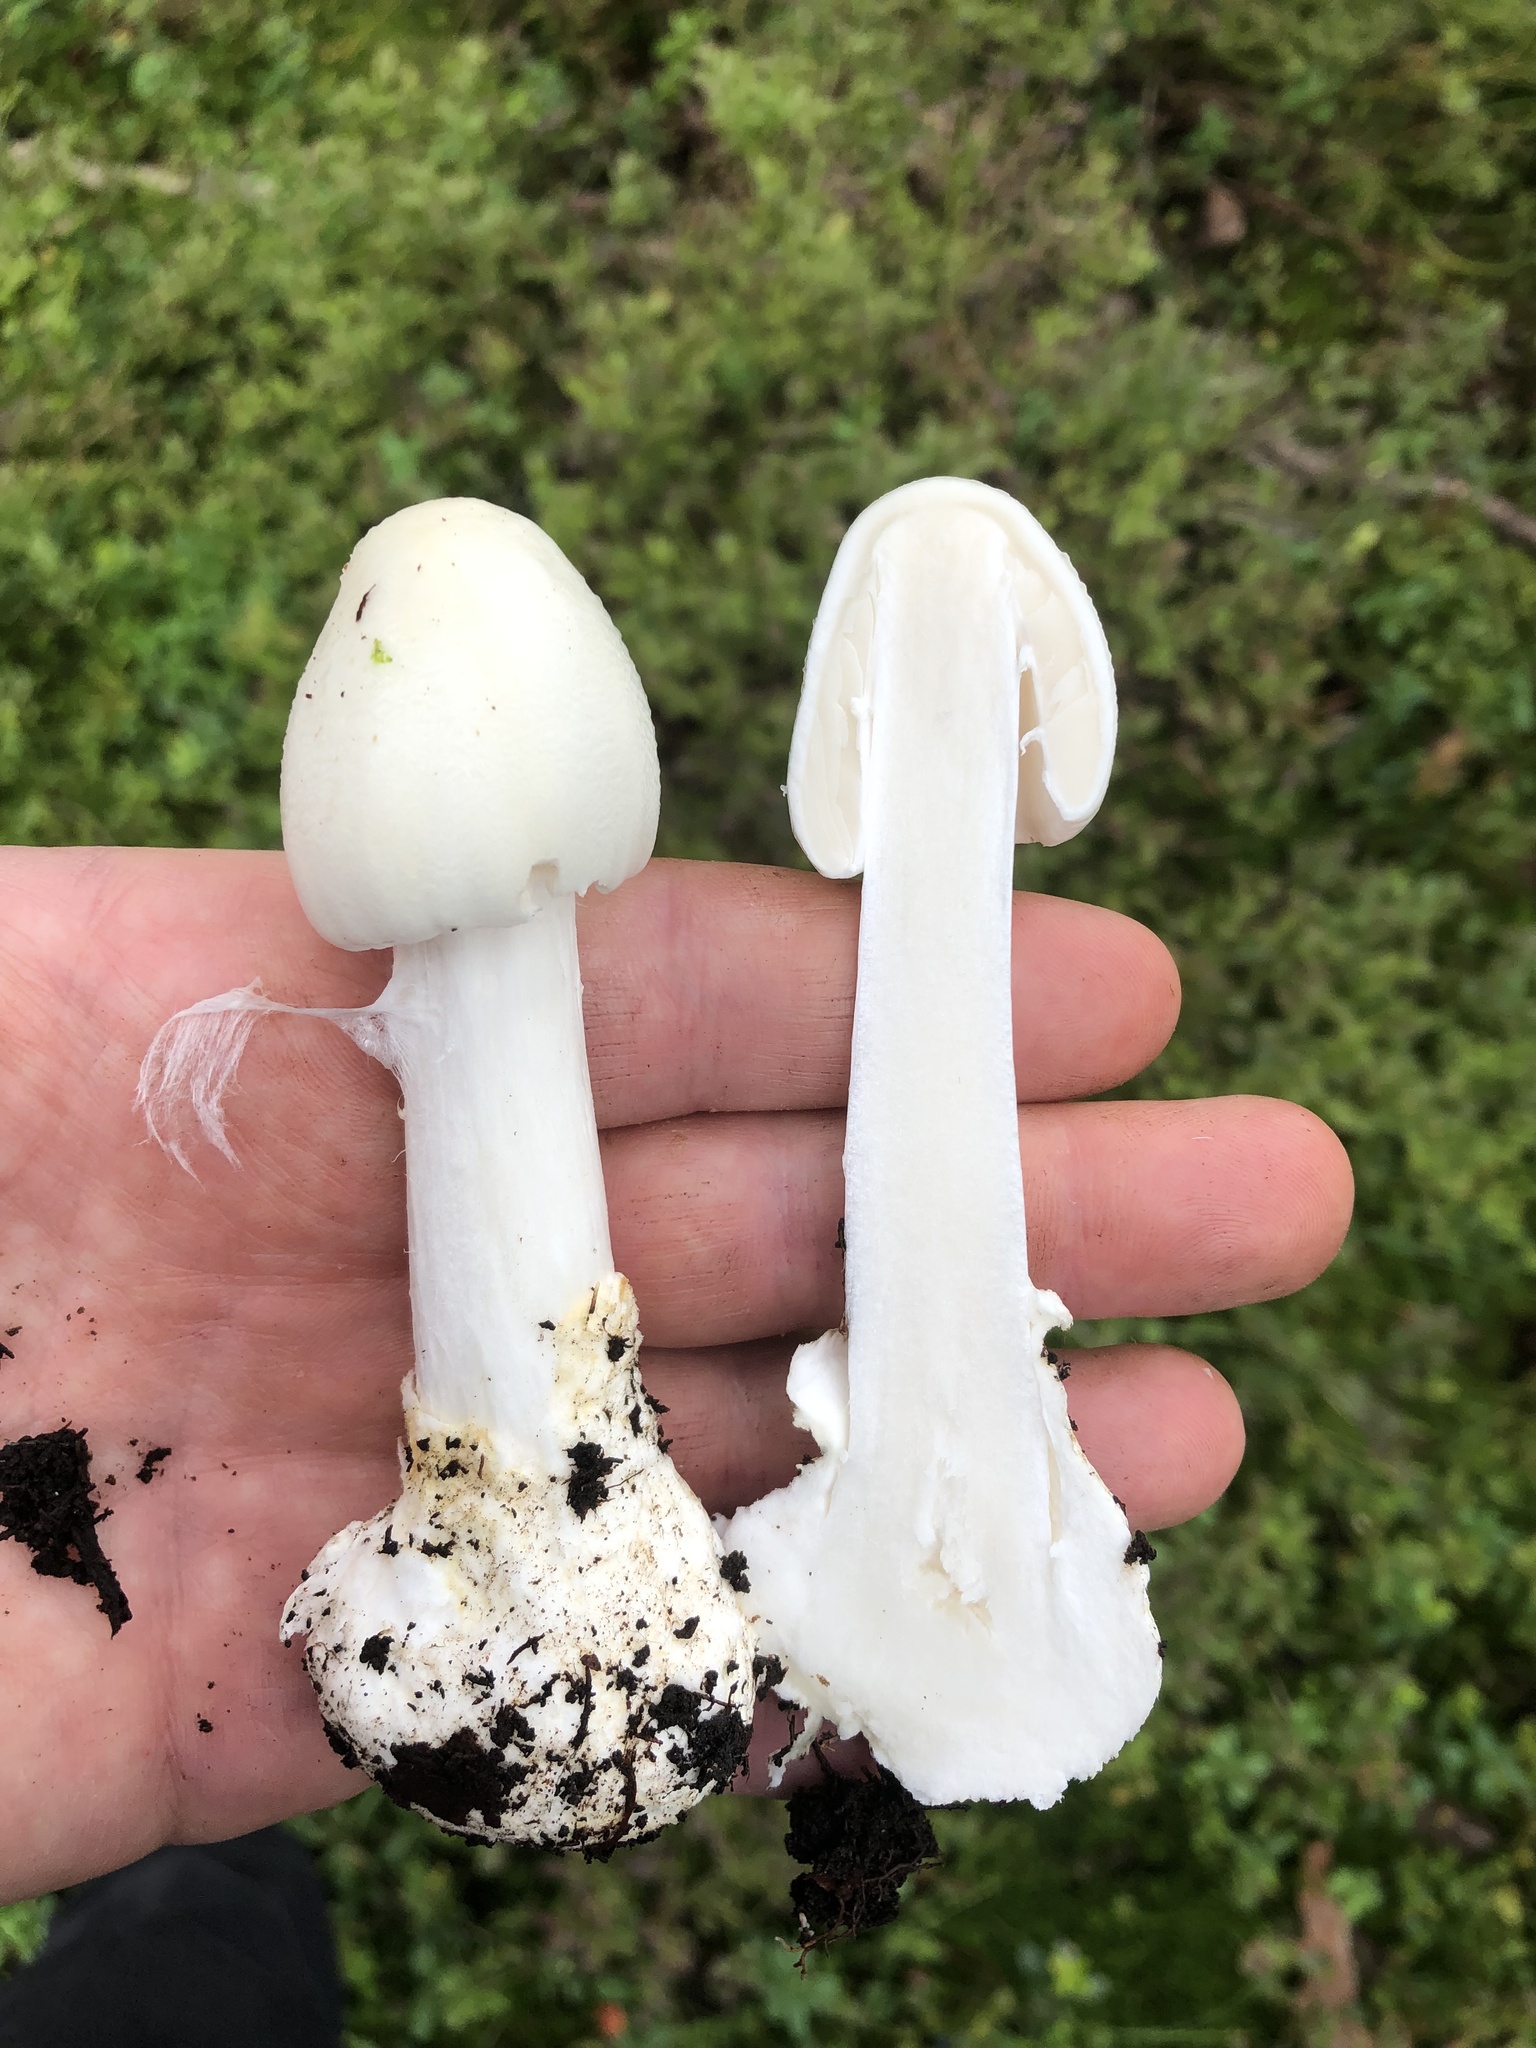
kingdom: Fungi
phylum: Basidiomycota
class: Agaricomycetes
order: Agaricales
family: Amanitaceae
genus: Amanita
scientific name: Amanita virosa
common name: Destroying angel
